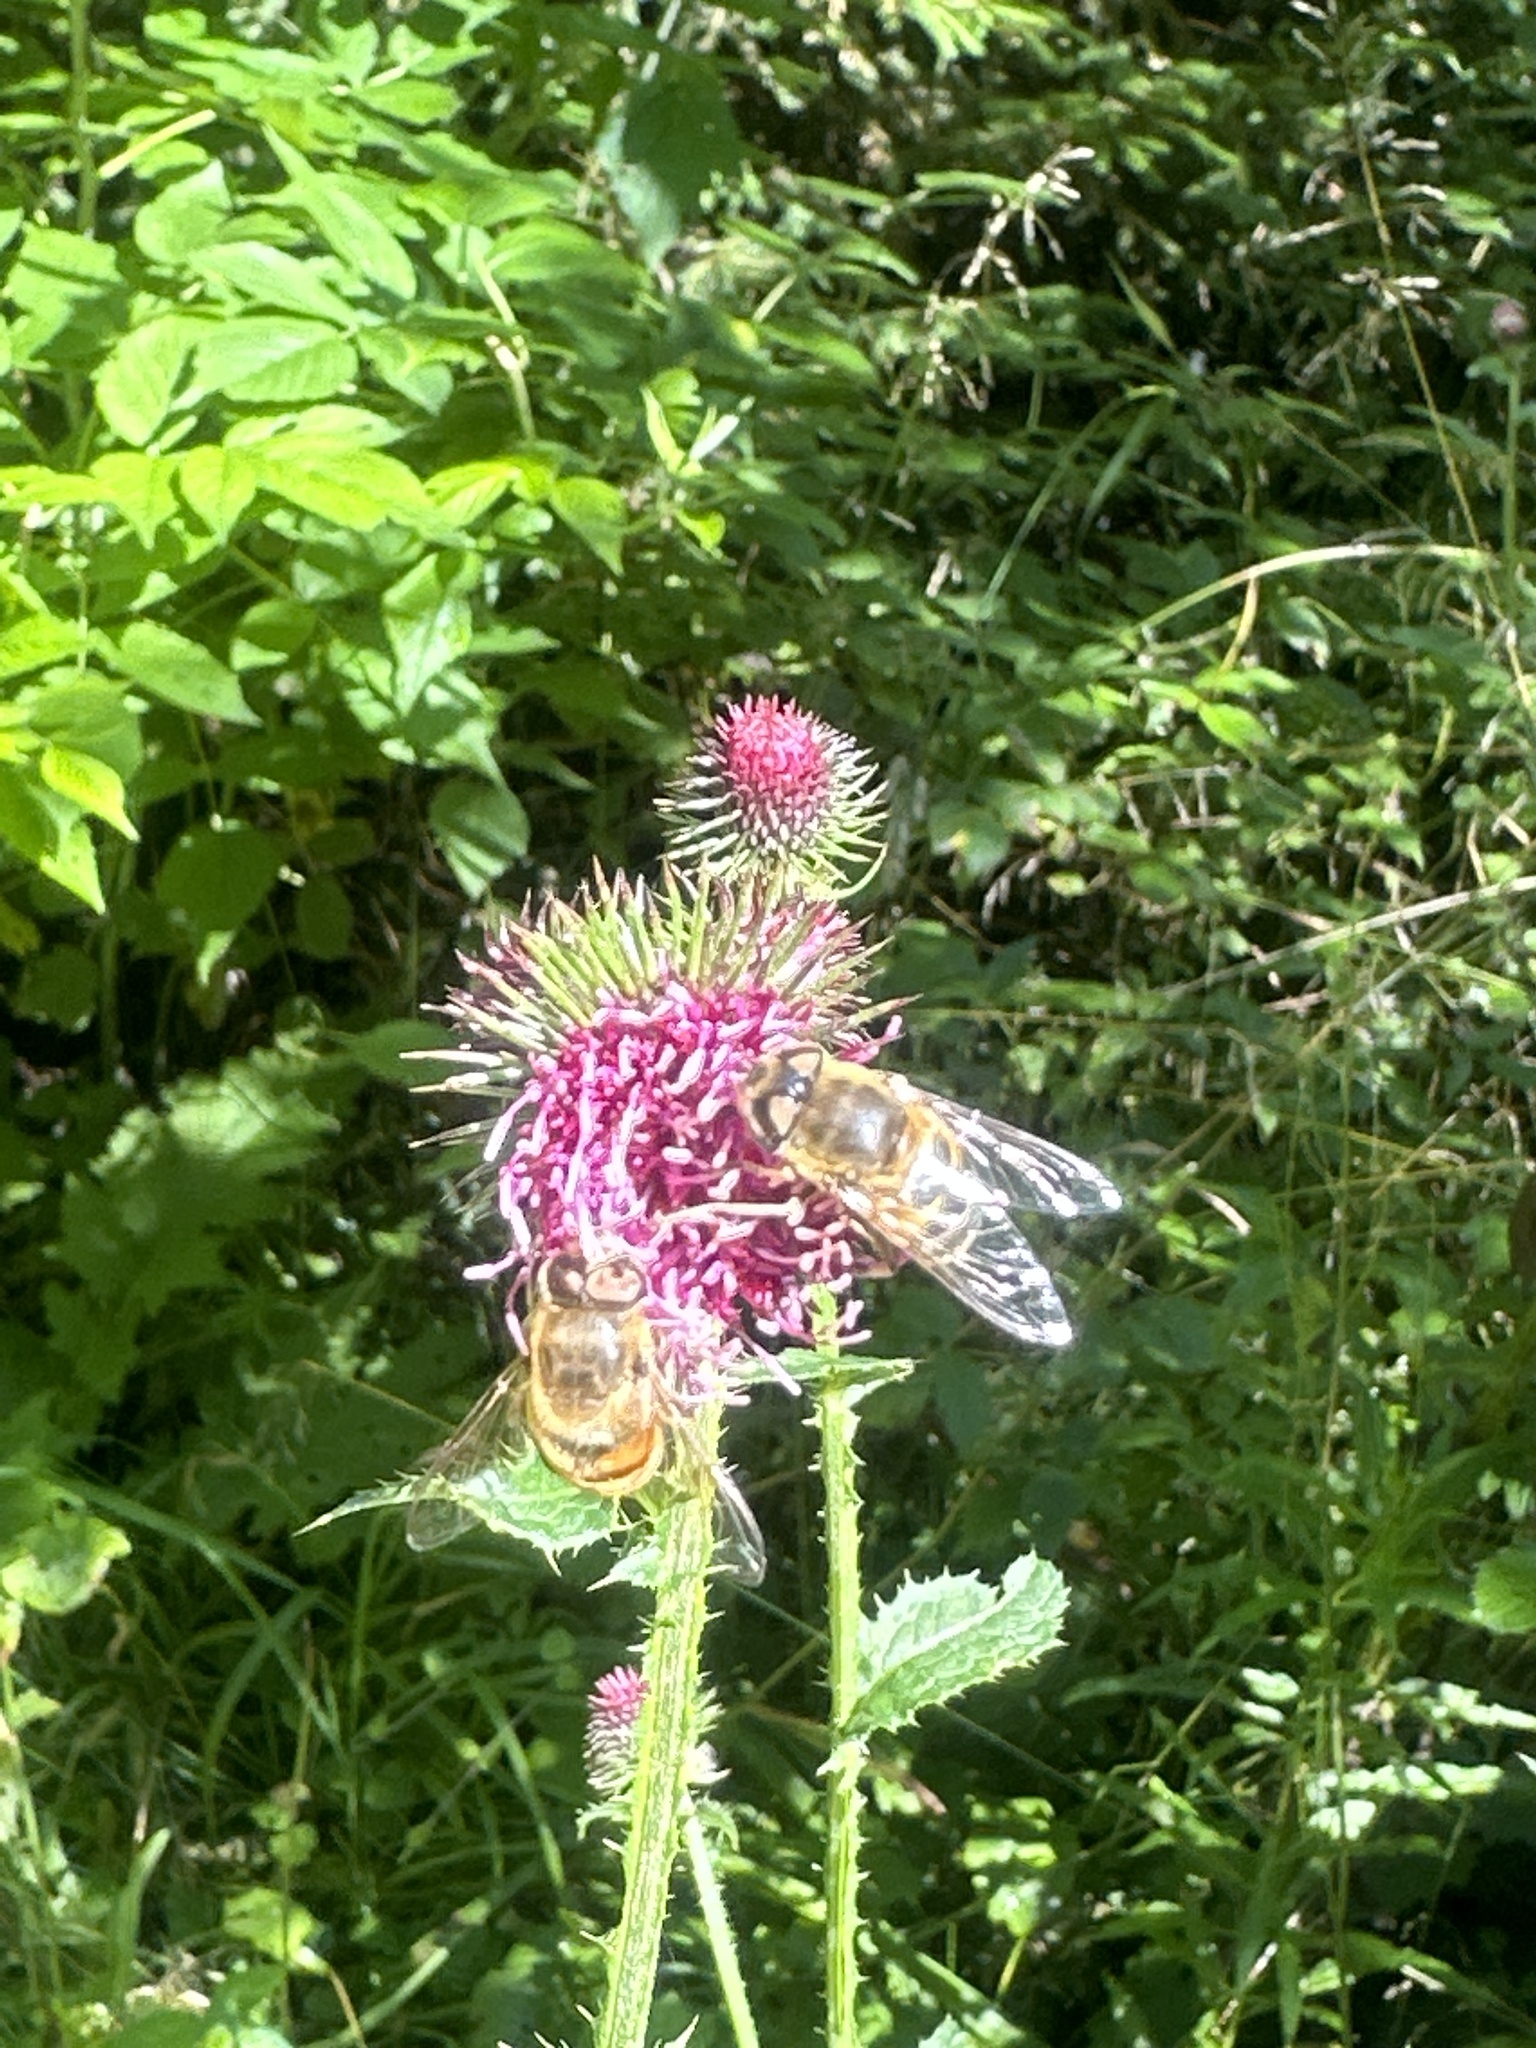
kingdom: Animalia
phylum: Arthropoda
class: Insecta
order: Diptera
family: Syrphidae
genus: Eristalis
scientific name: Eristalis tenax
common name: Drone fly
